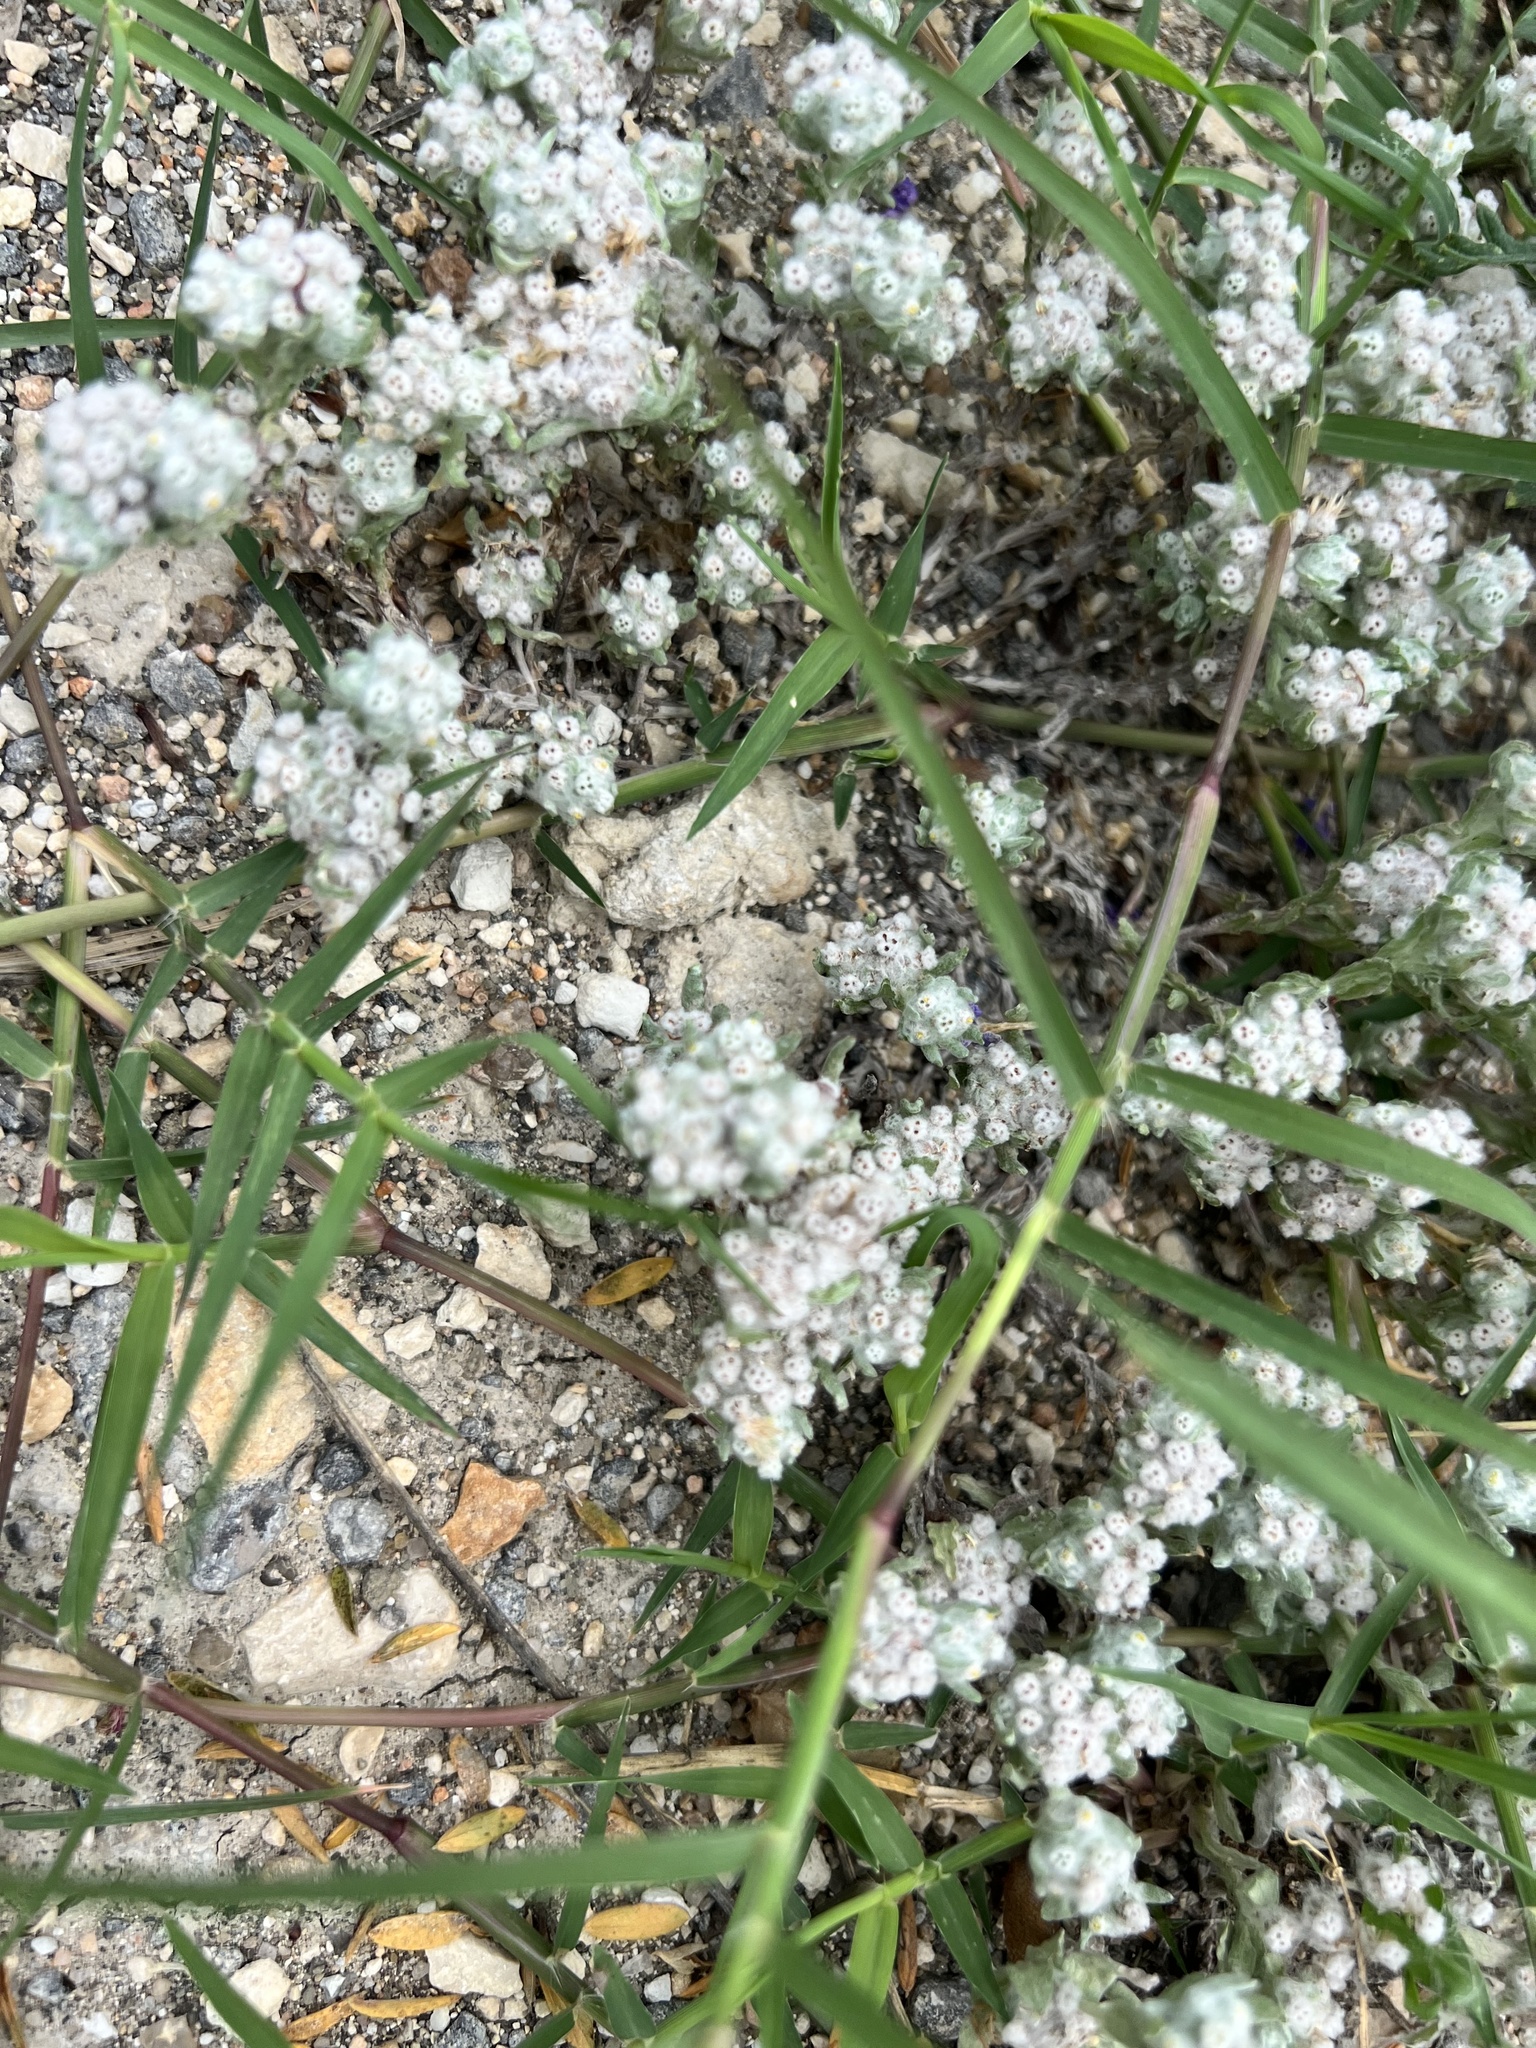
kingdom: Plantae
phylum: Tracheophyta
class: Magnoliopsida
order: Asterales
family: Asteraceae
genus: Diaperia
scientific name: Diaperia verna
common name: Many-stem rabbit-tobacco
